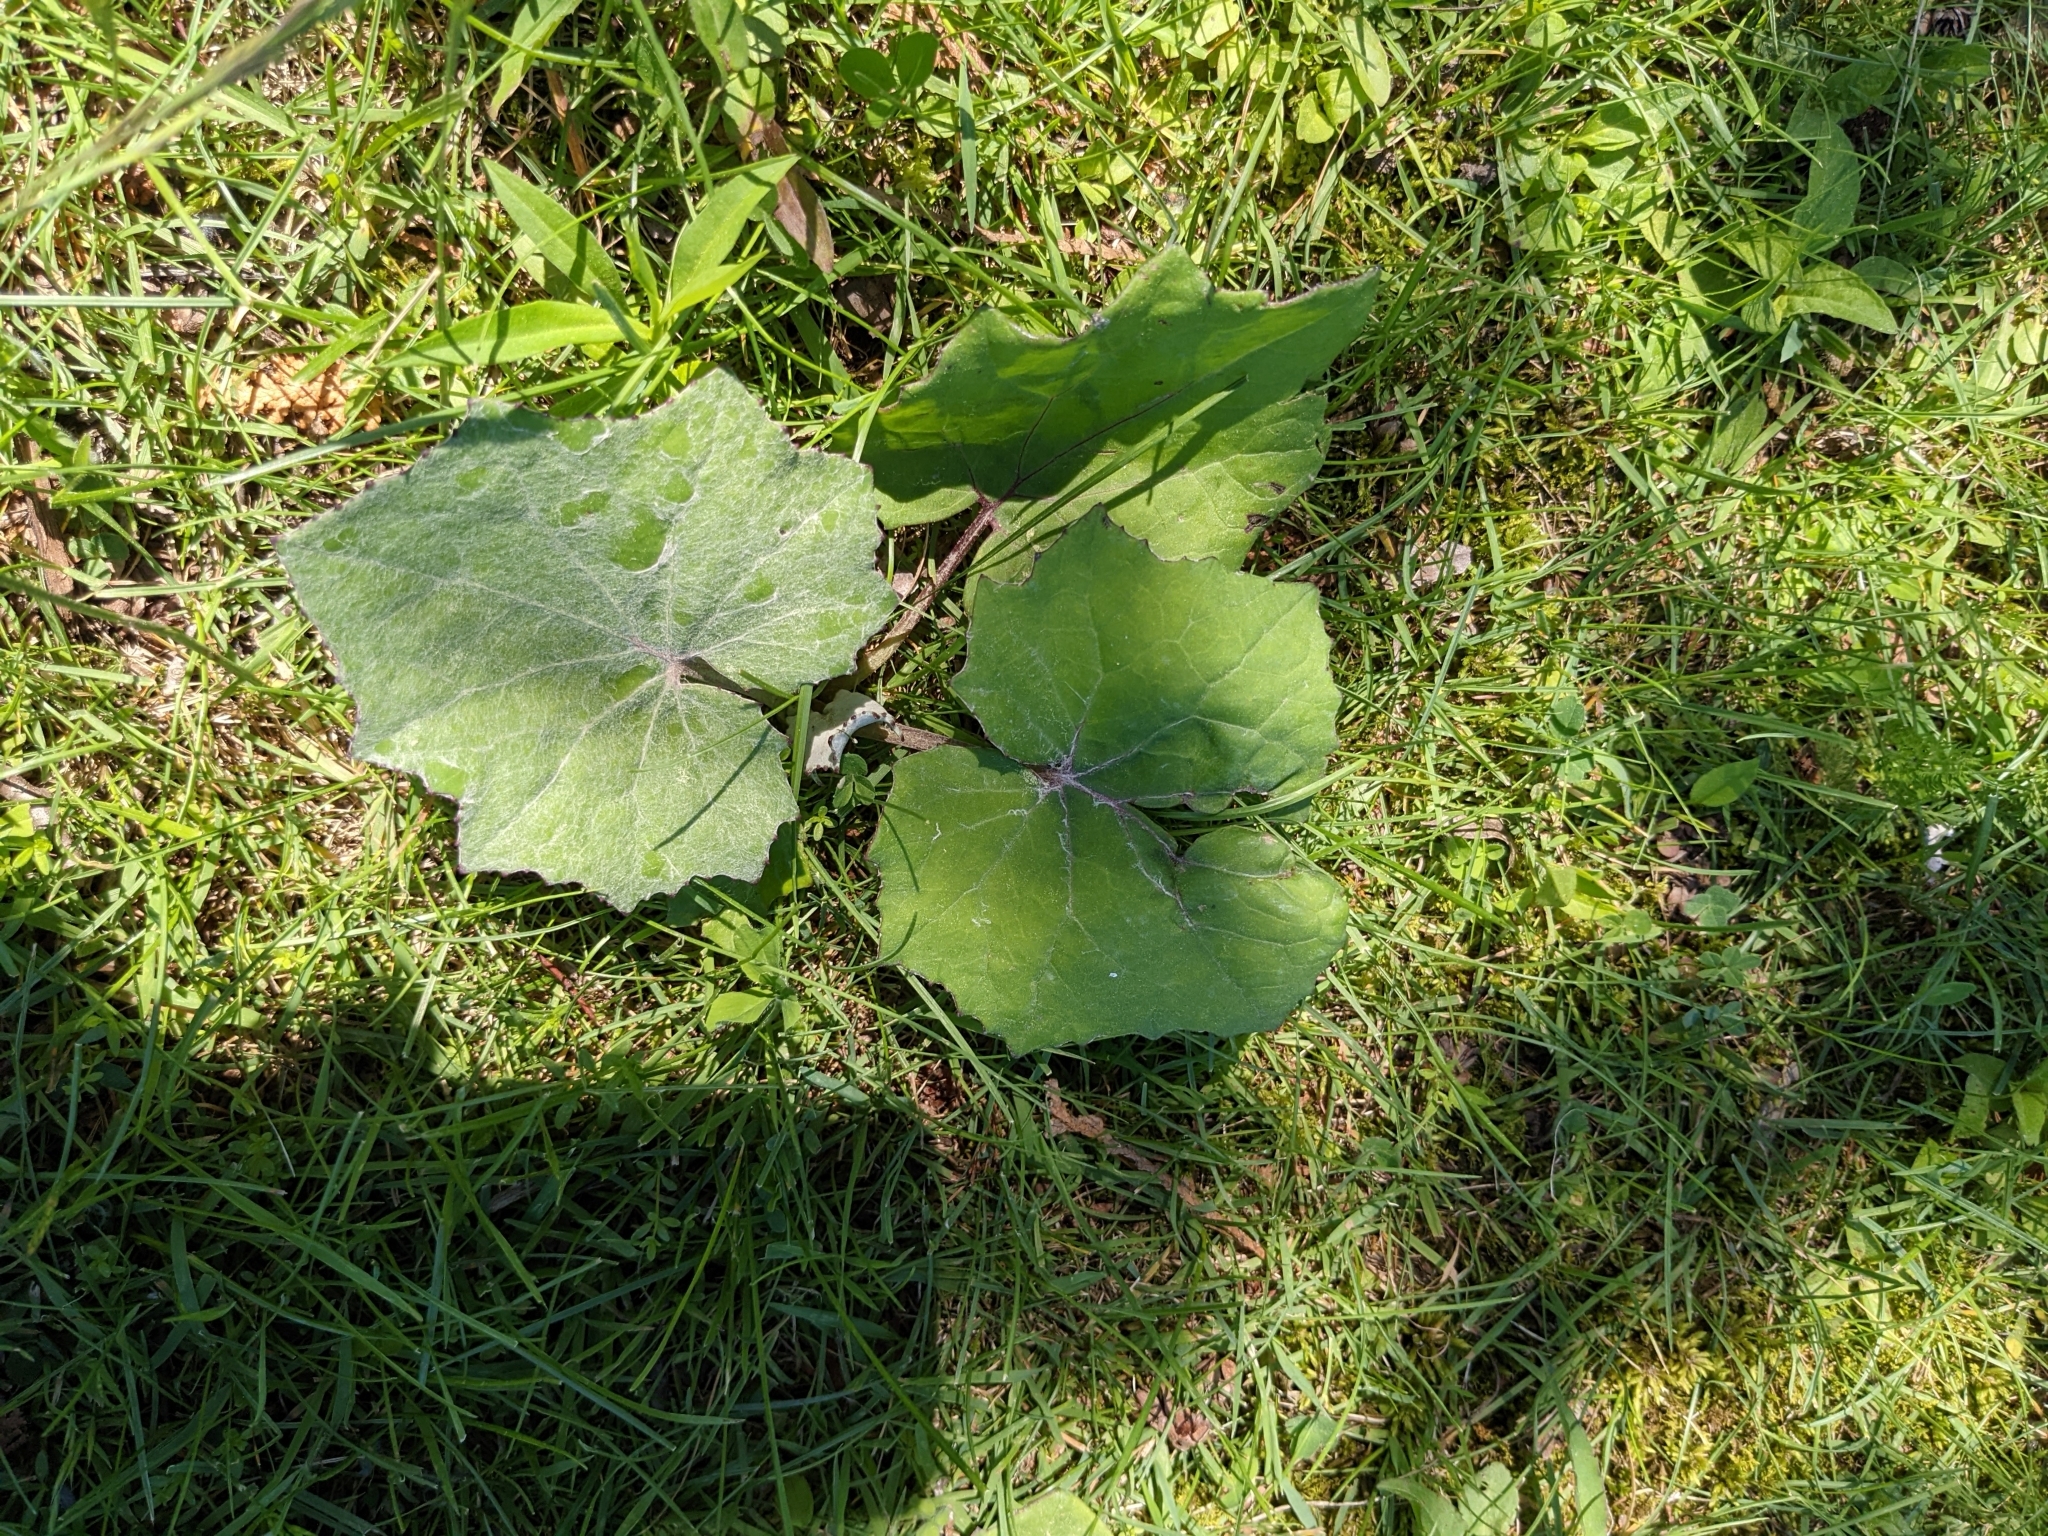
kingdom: Plantae
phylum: Tracheophyta
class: Magnoliopsida
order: Asterales
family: Asteraceae
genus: Tussilago
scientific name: Tussilago farfara
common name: Coltsfoot
